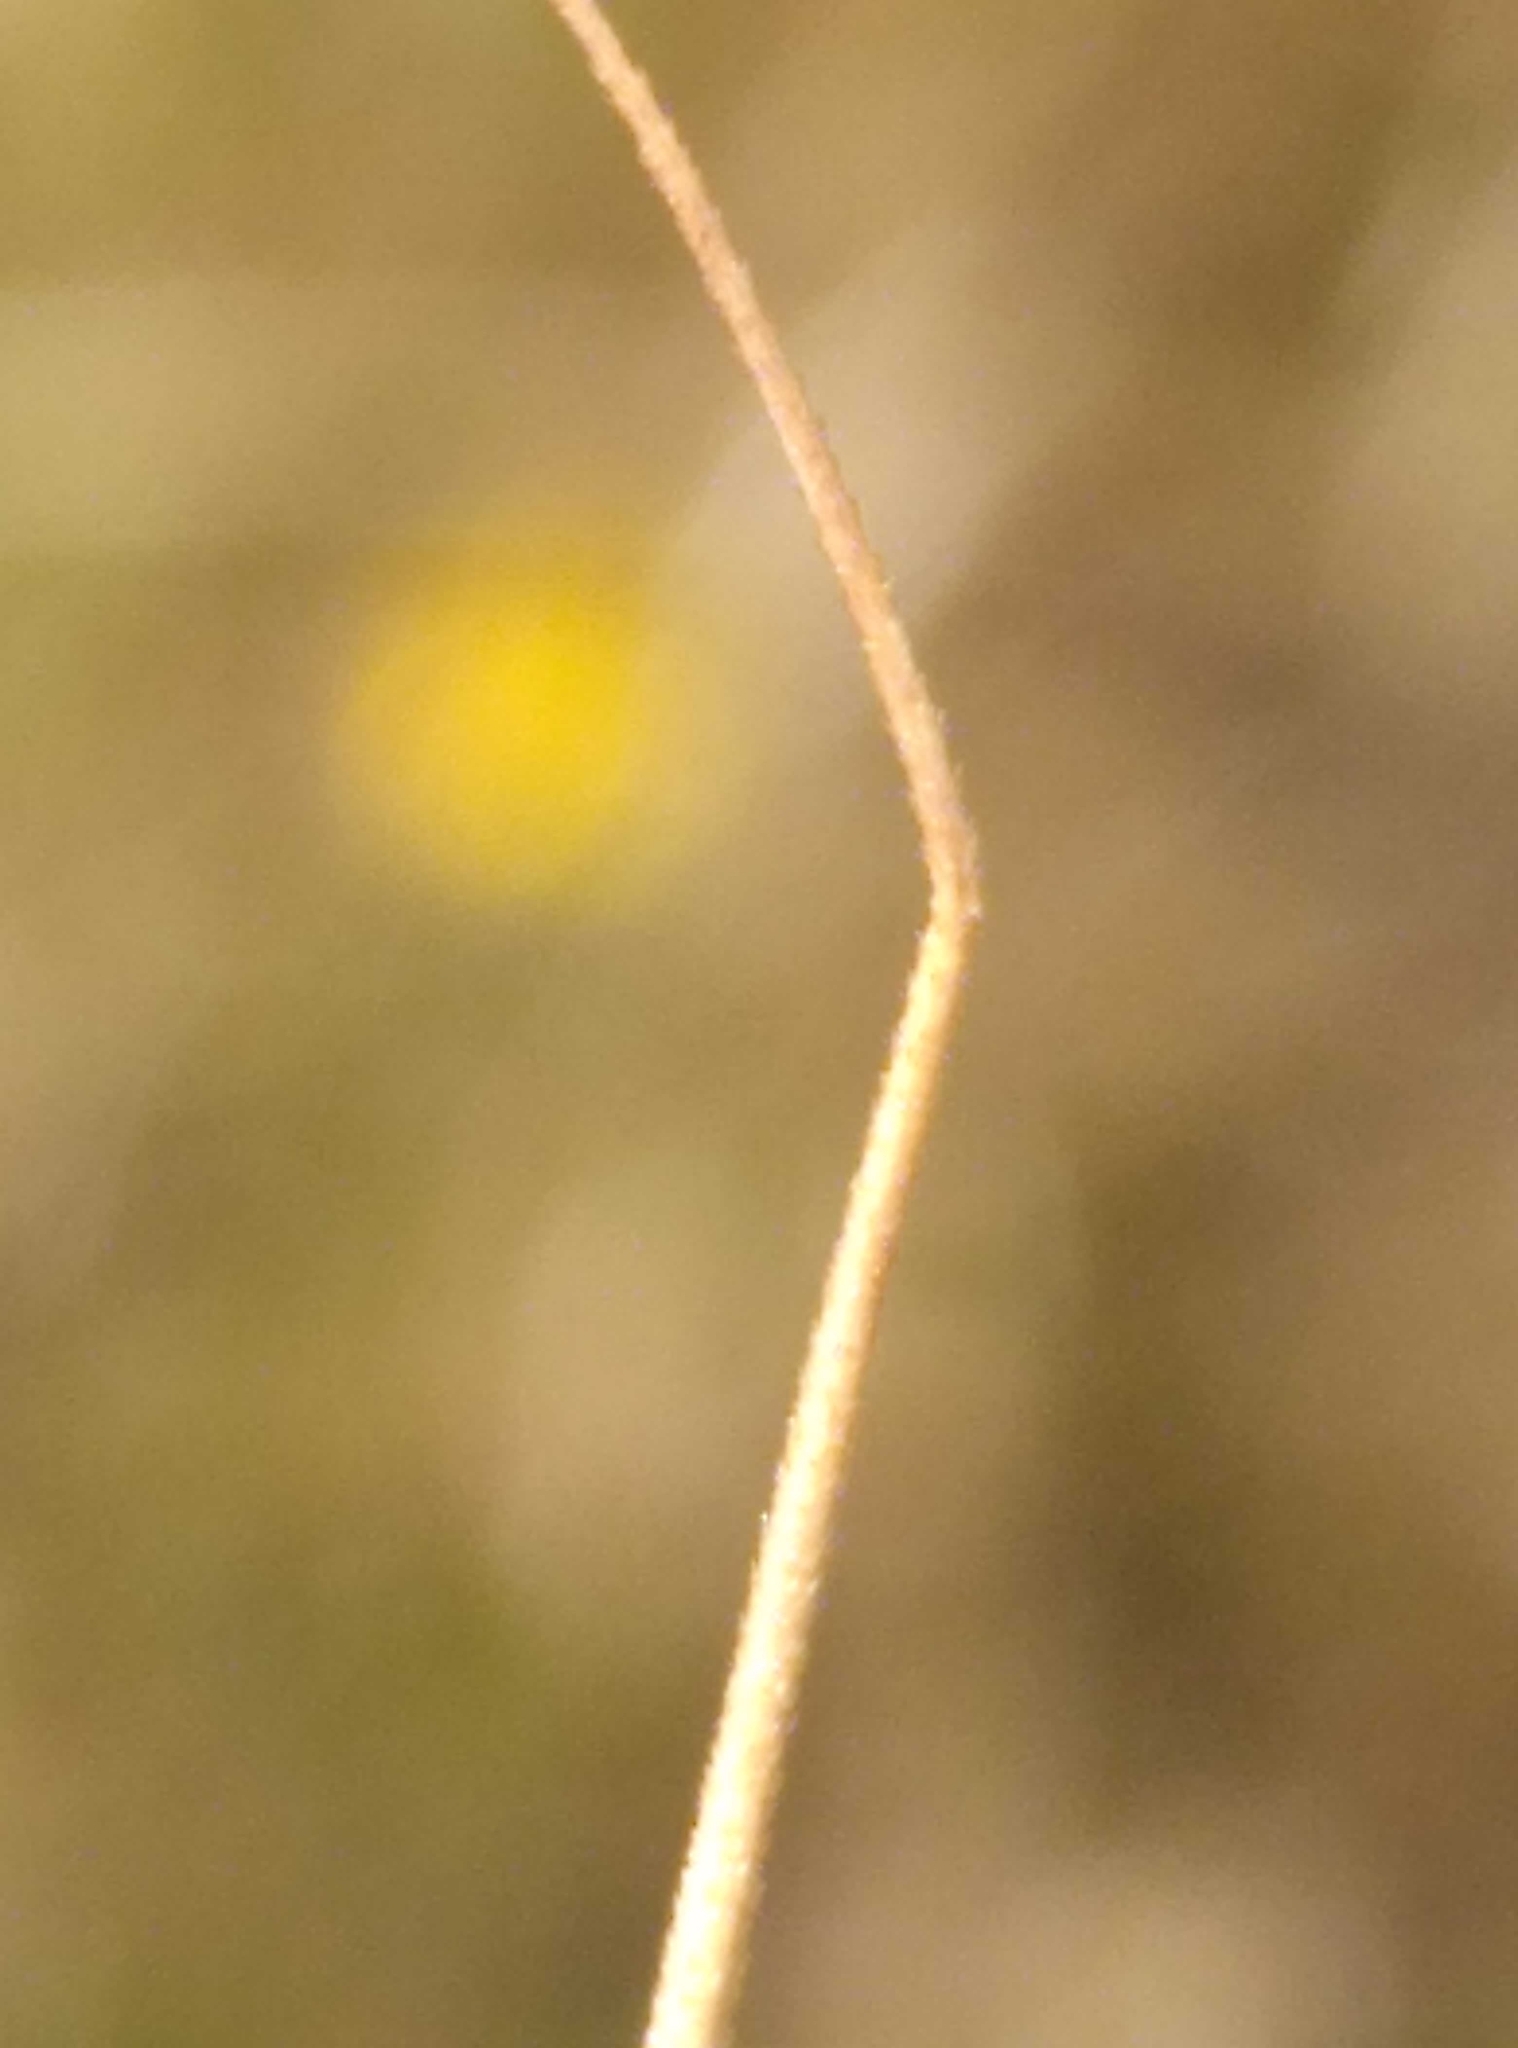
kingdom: Plantae
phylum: Tracheophyta
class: Liliopsida
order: Poales
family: Poaceae
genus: Anthosachne
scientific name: Anthosachne scabra
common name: Common wheatgrass
